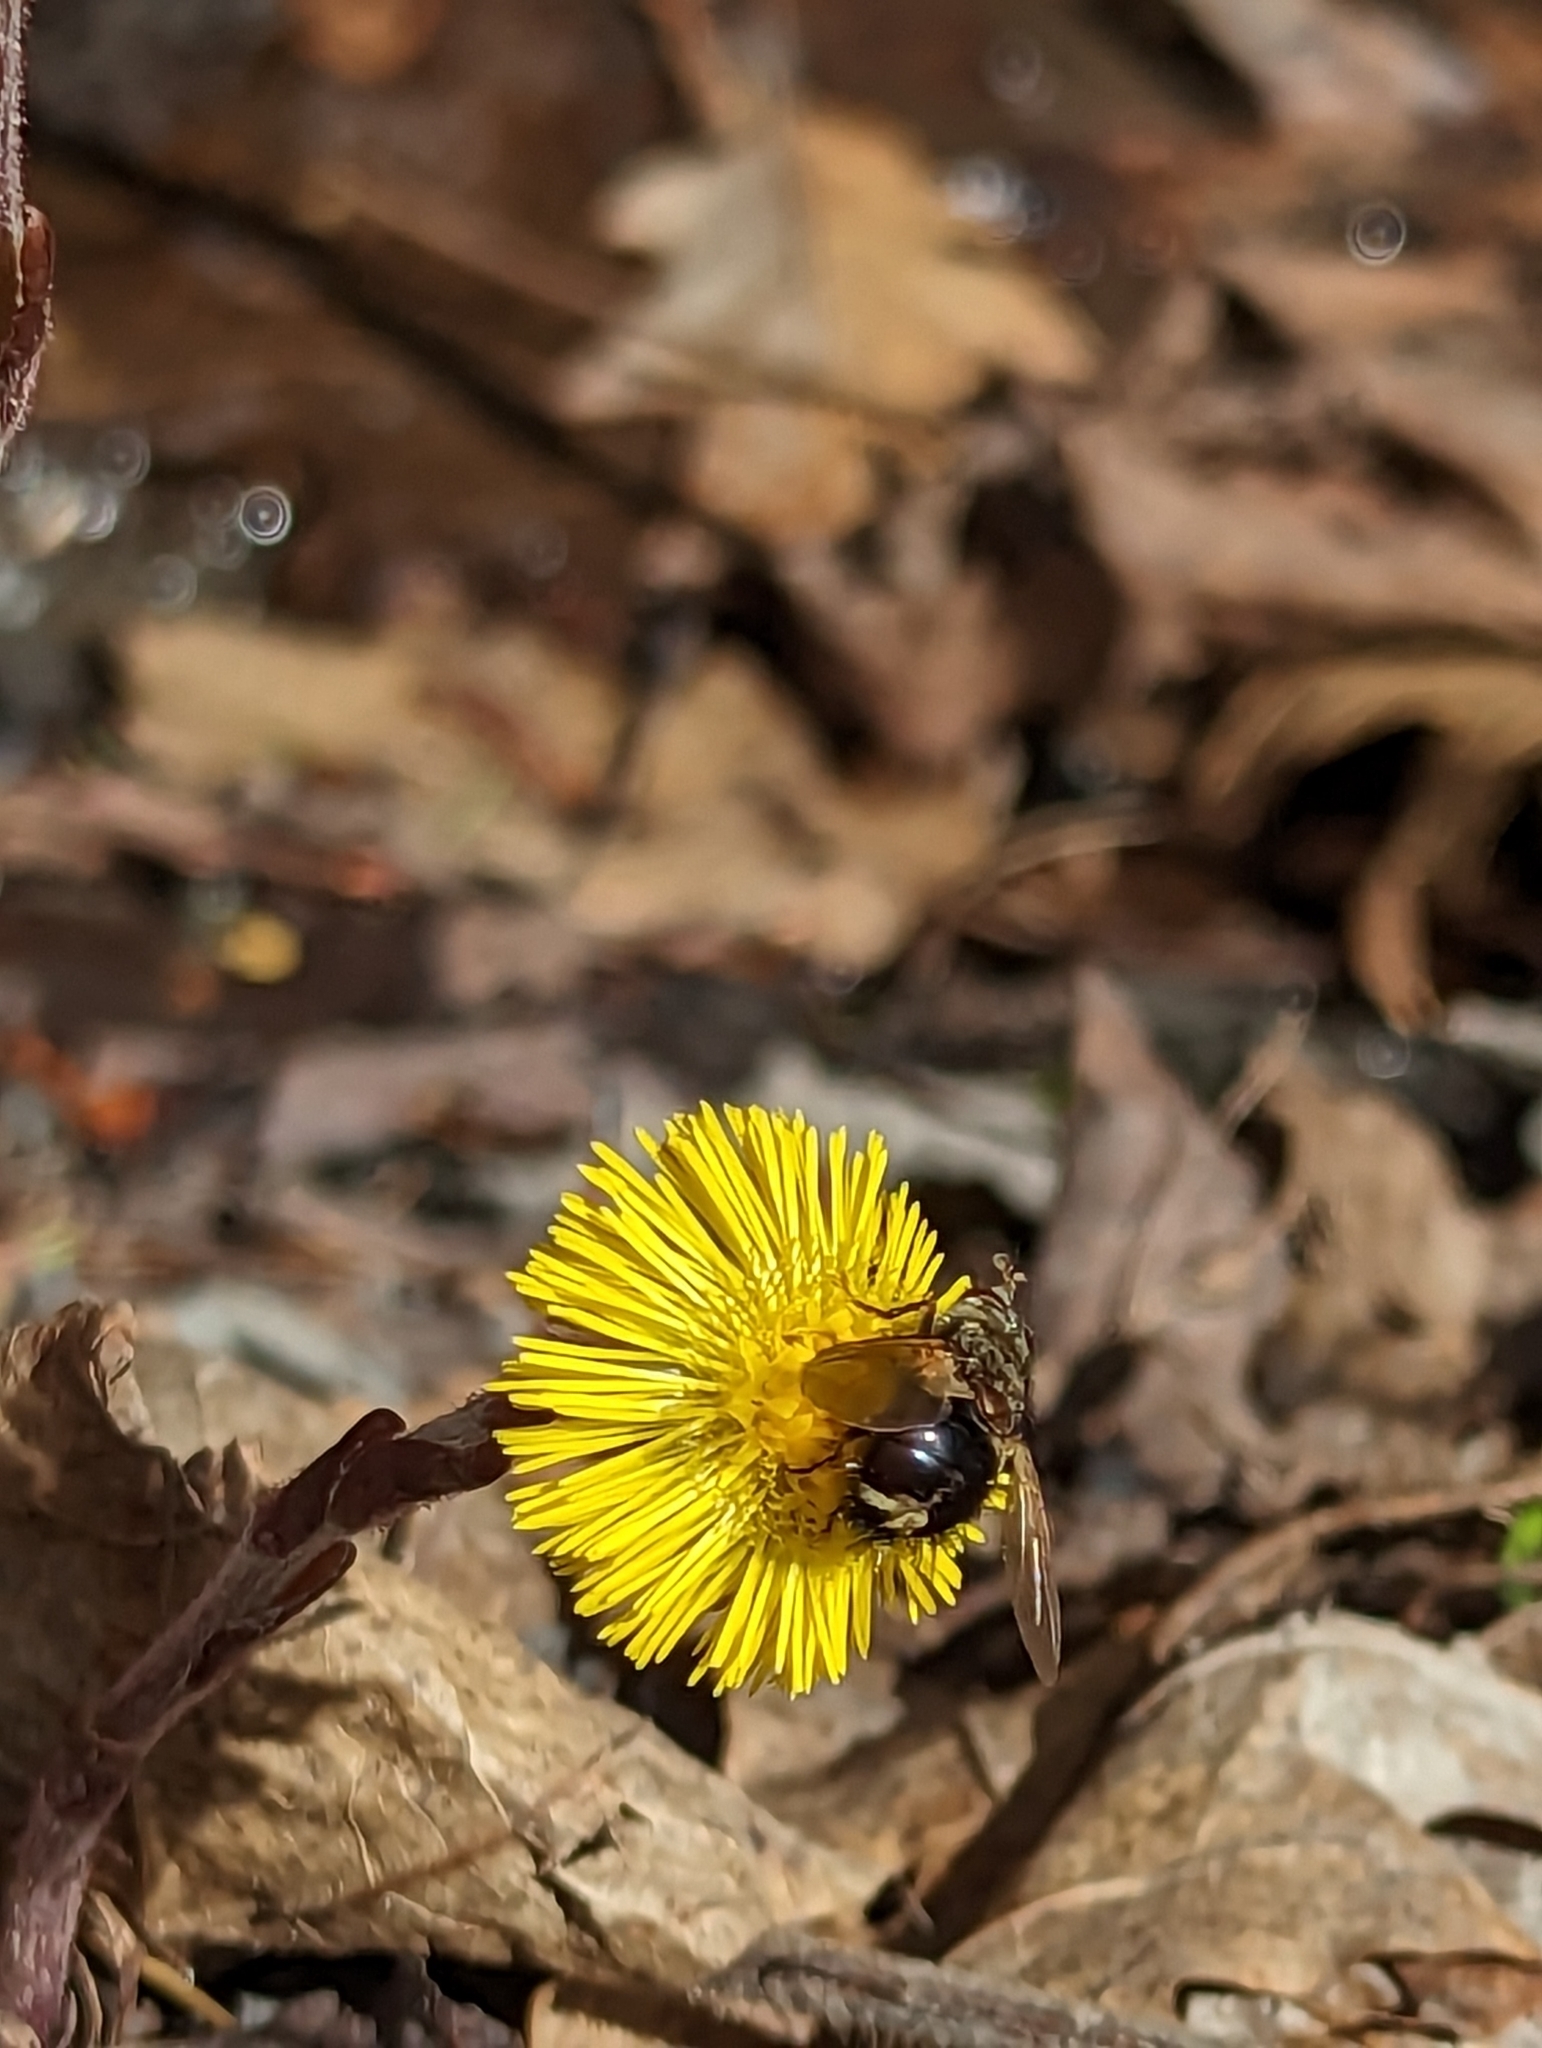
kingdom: Animalia
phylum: Arthropoda
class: Insecta
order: Diptera
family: Tachinidae
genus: Epalpus
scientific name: Epalpus signifer
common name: Early tachinid fly
